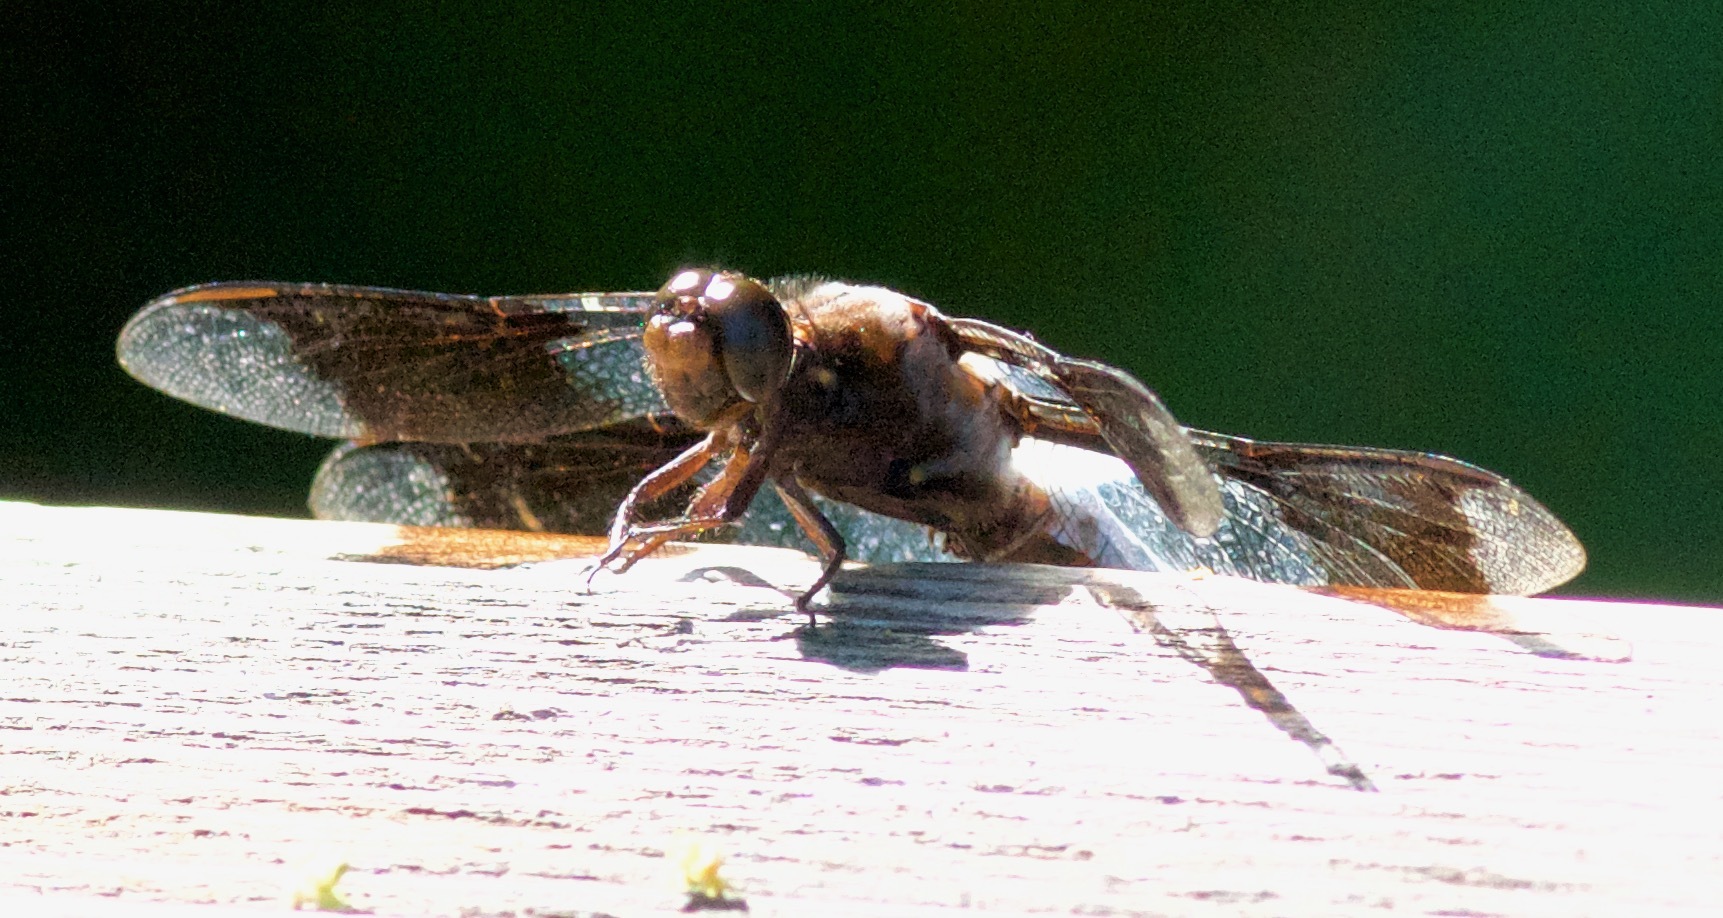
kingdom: Animalia
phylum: Arthropoda
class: Insecta
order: Odonata
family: Libellulidae
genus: Plathemis
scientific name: Plathemis lydia
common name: Common whitetail
